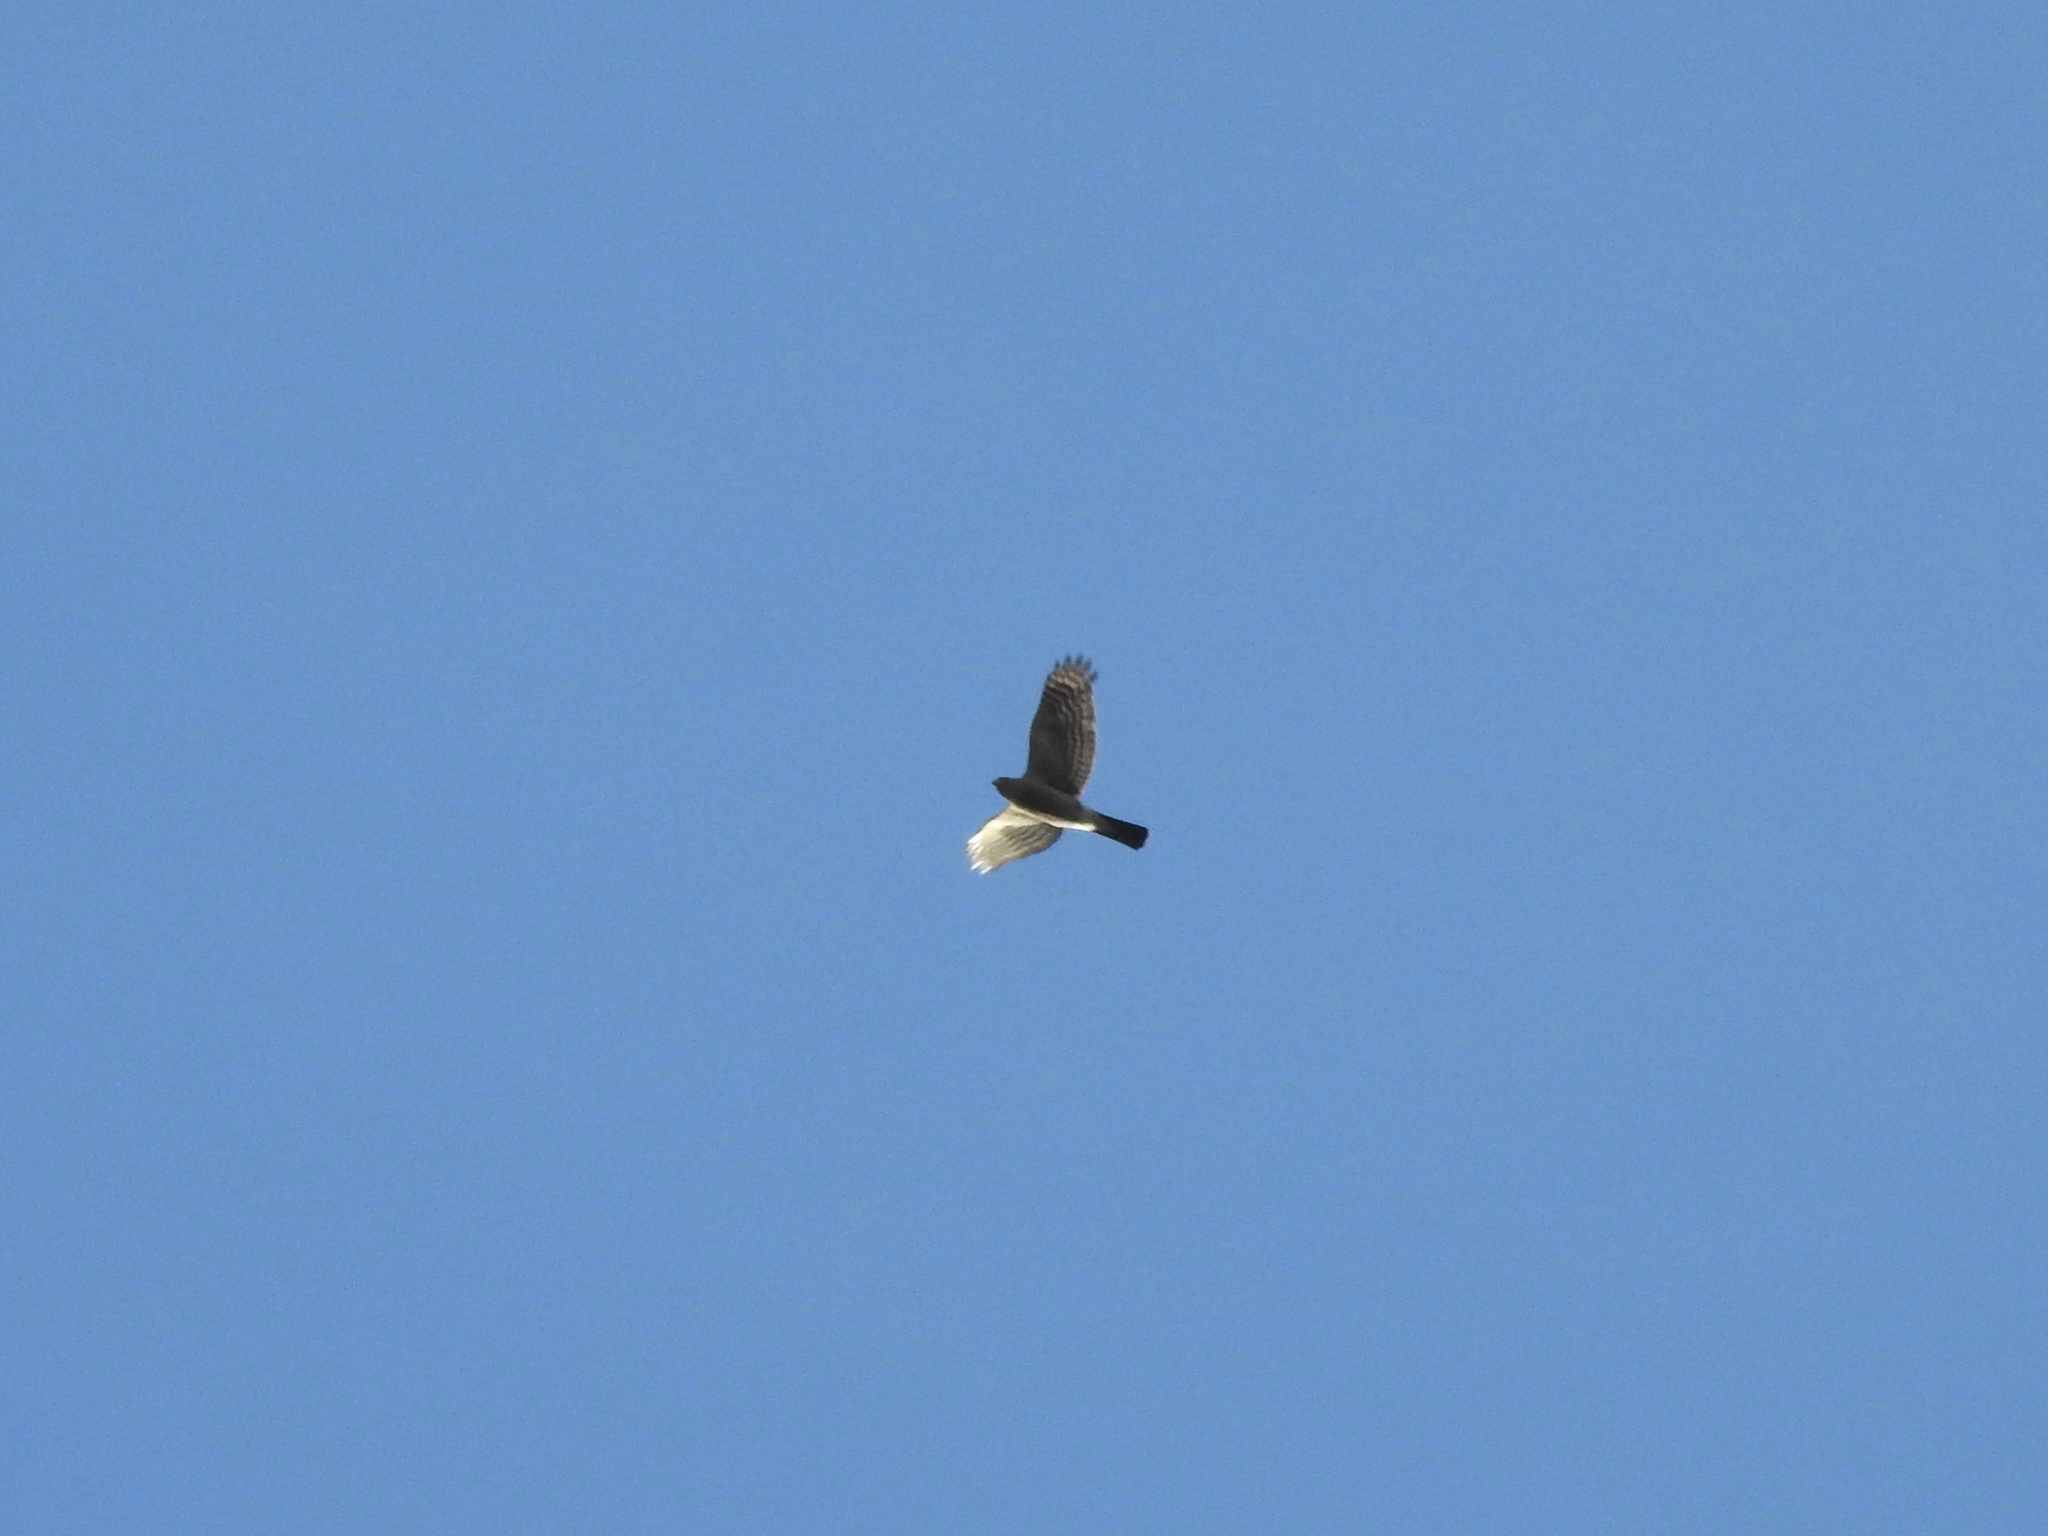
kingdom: Animalia
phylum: Chordata
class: Aves
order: Accipitriformes
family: Accipitridae
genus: Accipiter
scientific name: Accipiter striatus
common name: Sharp-shinned hawk
